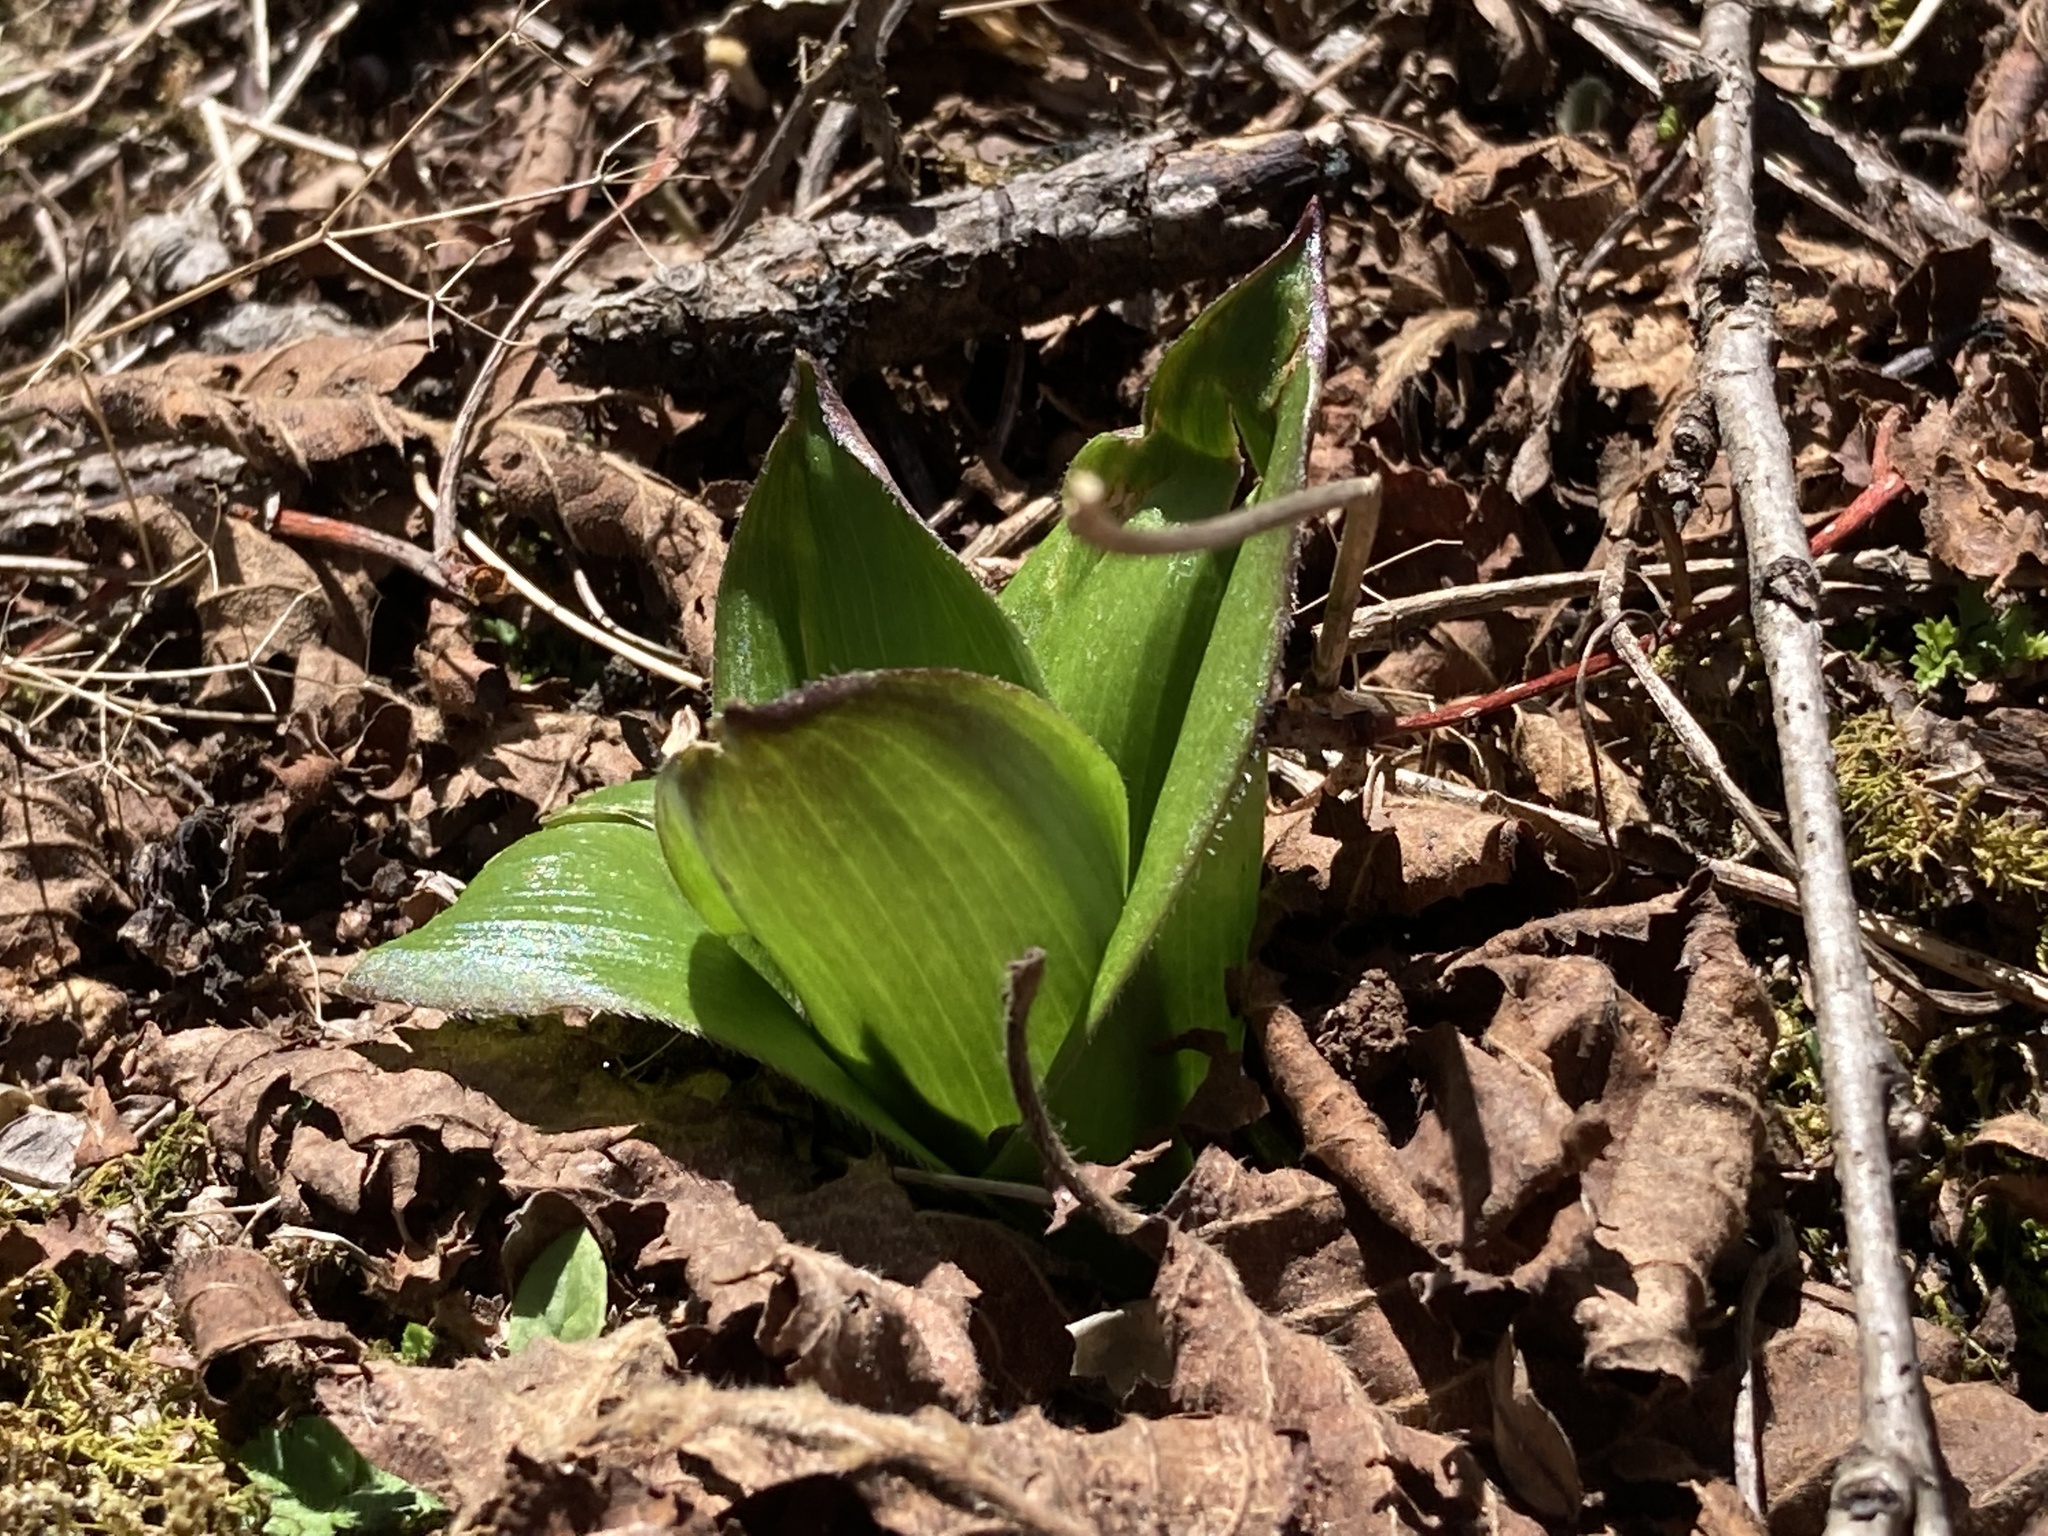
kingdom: Plantae
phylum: Tracheophyta
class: Liliopsida
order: Liliales
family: Liliaceae
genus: Clintonia
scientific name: Clintonia udensis
